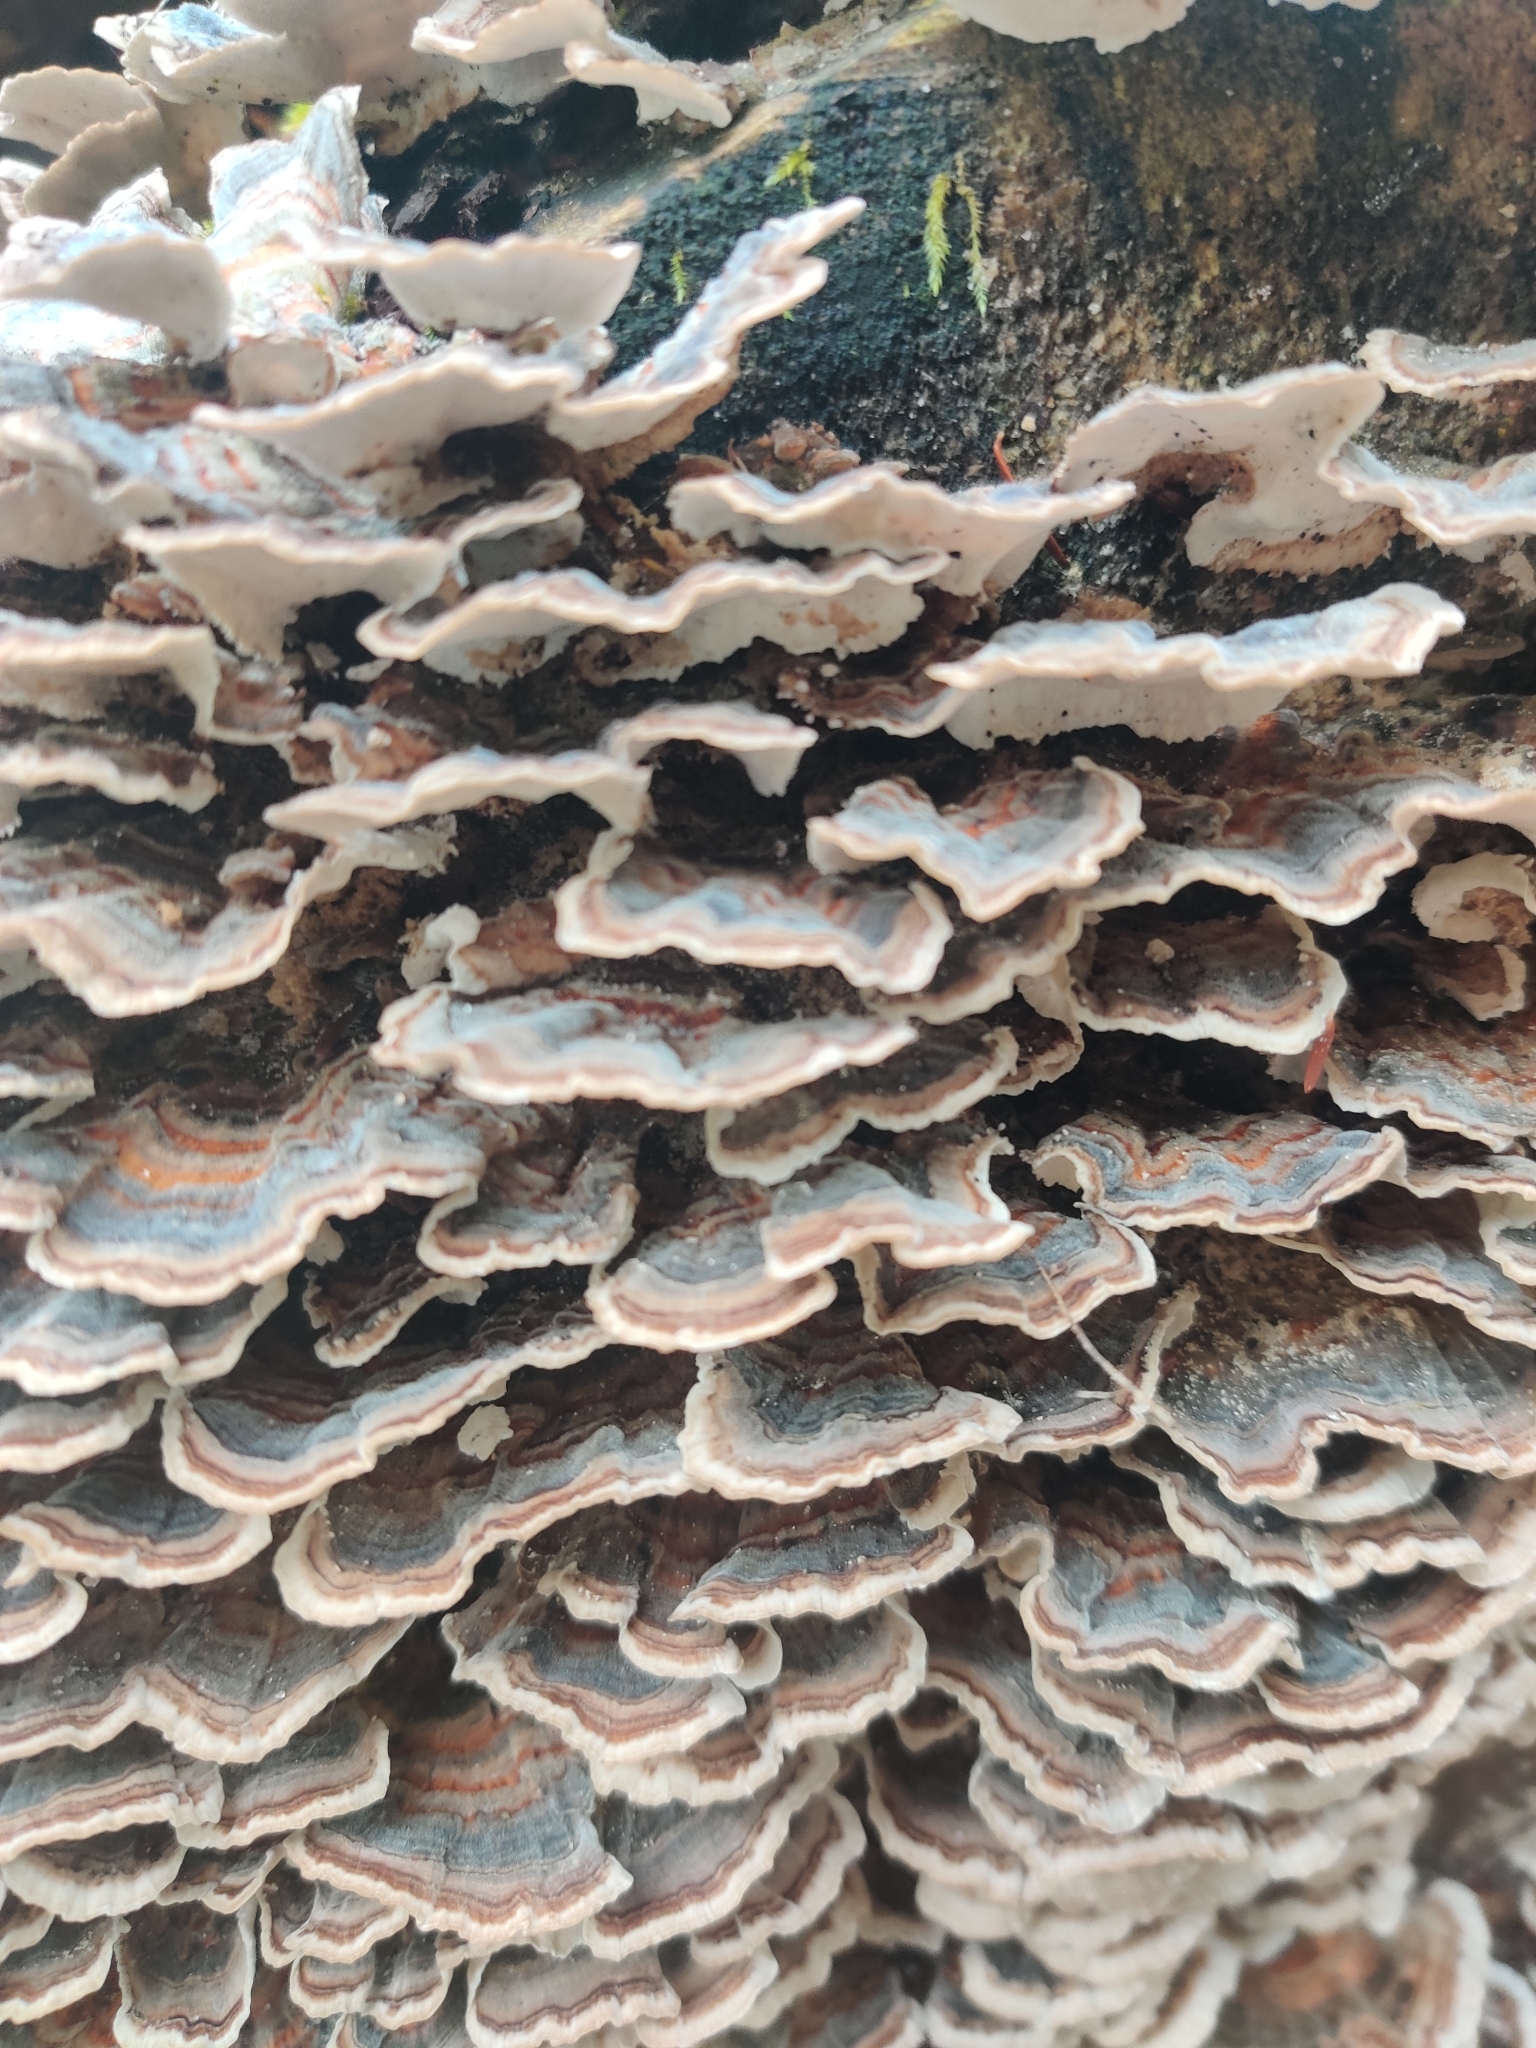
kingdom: Fungi
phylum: Basidiomycota
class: Agaricomycetes
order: Polyporales
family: Polyporaceae
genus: Trametes
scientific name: Trametes versicolor
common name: Turkeytail
